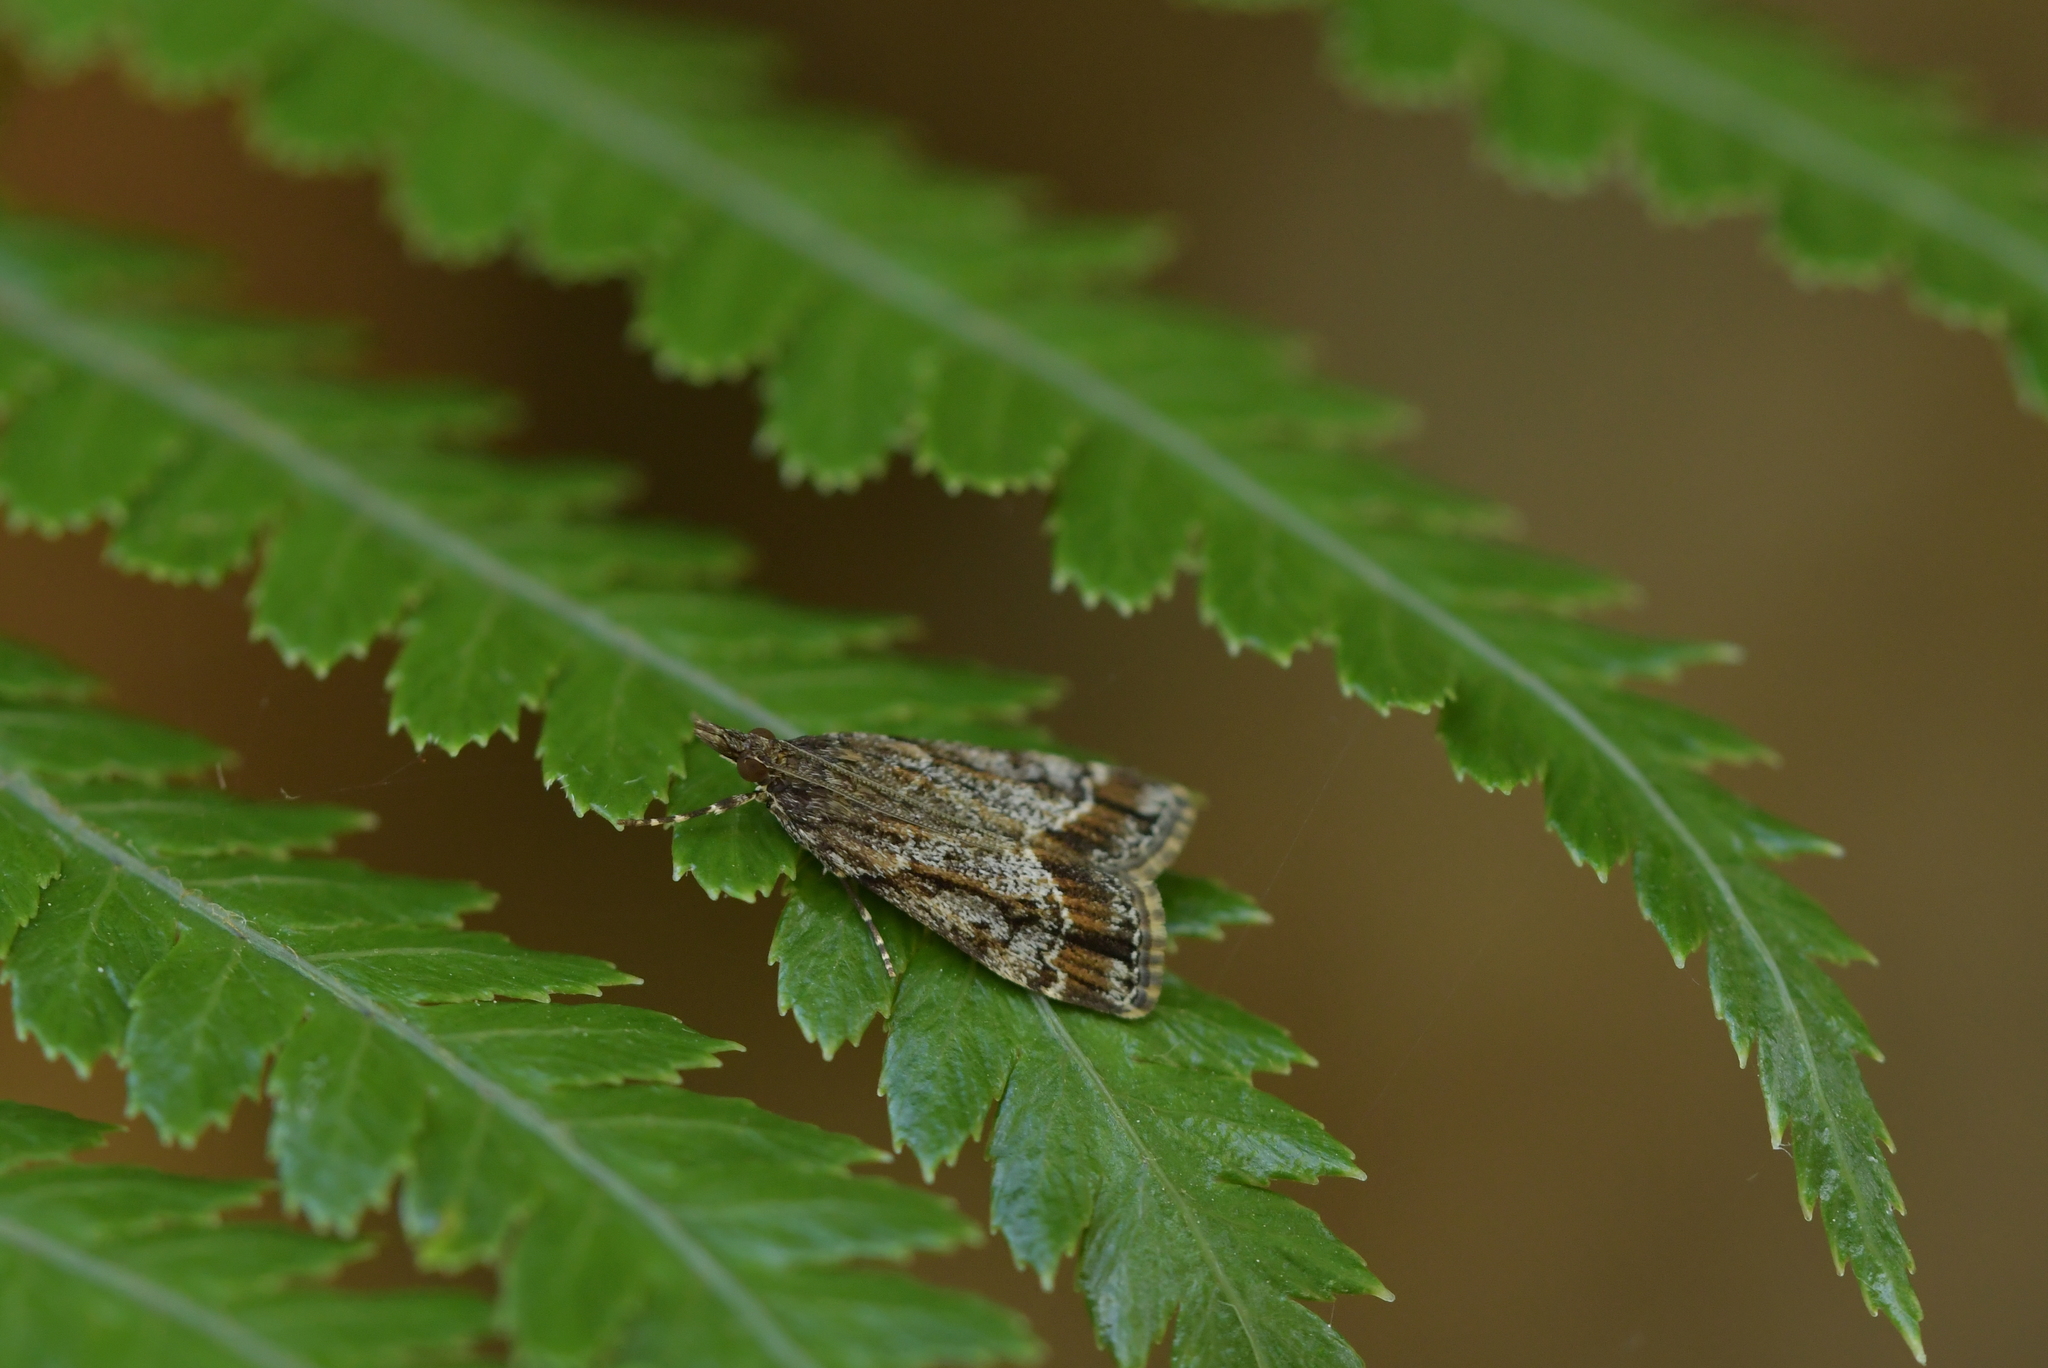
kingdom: Animalia
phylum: Arthropoda
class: Insecta
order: Lepidoptera
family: Crambidae
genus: Eudonia
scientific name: Eudonia legnota
